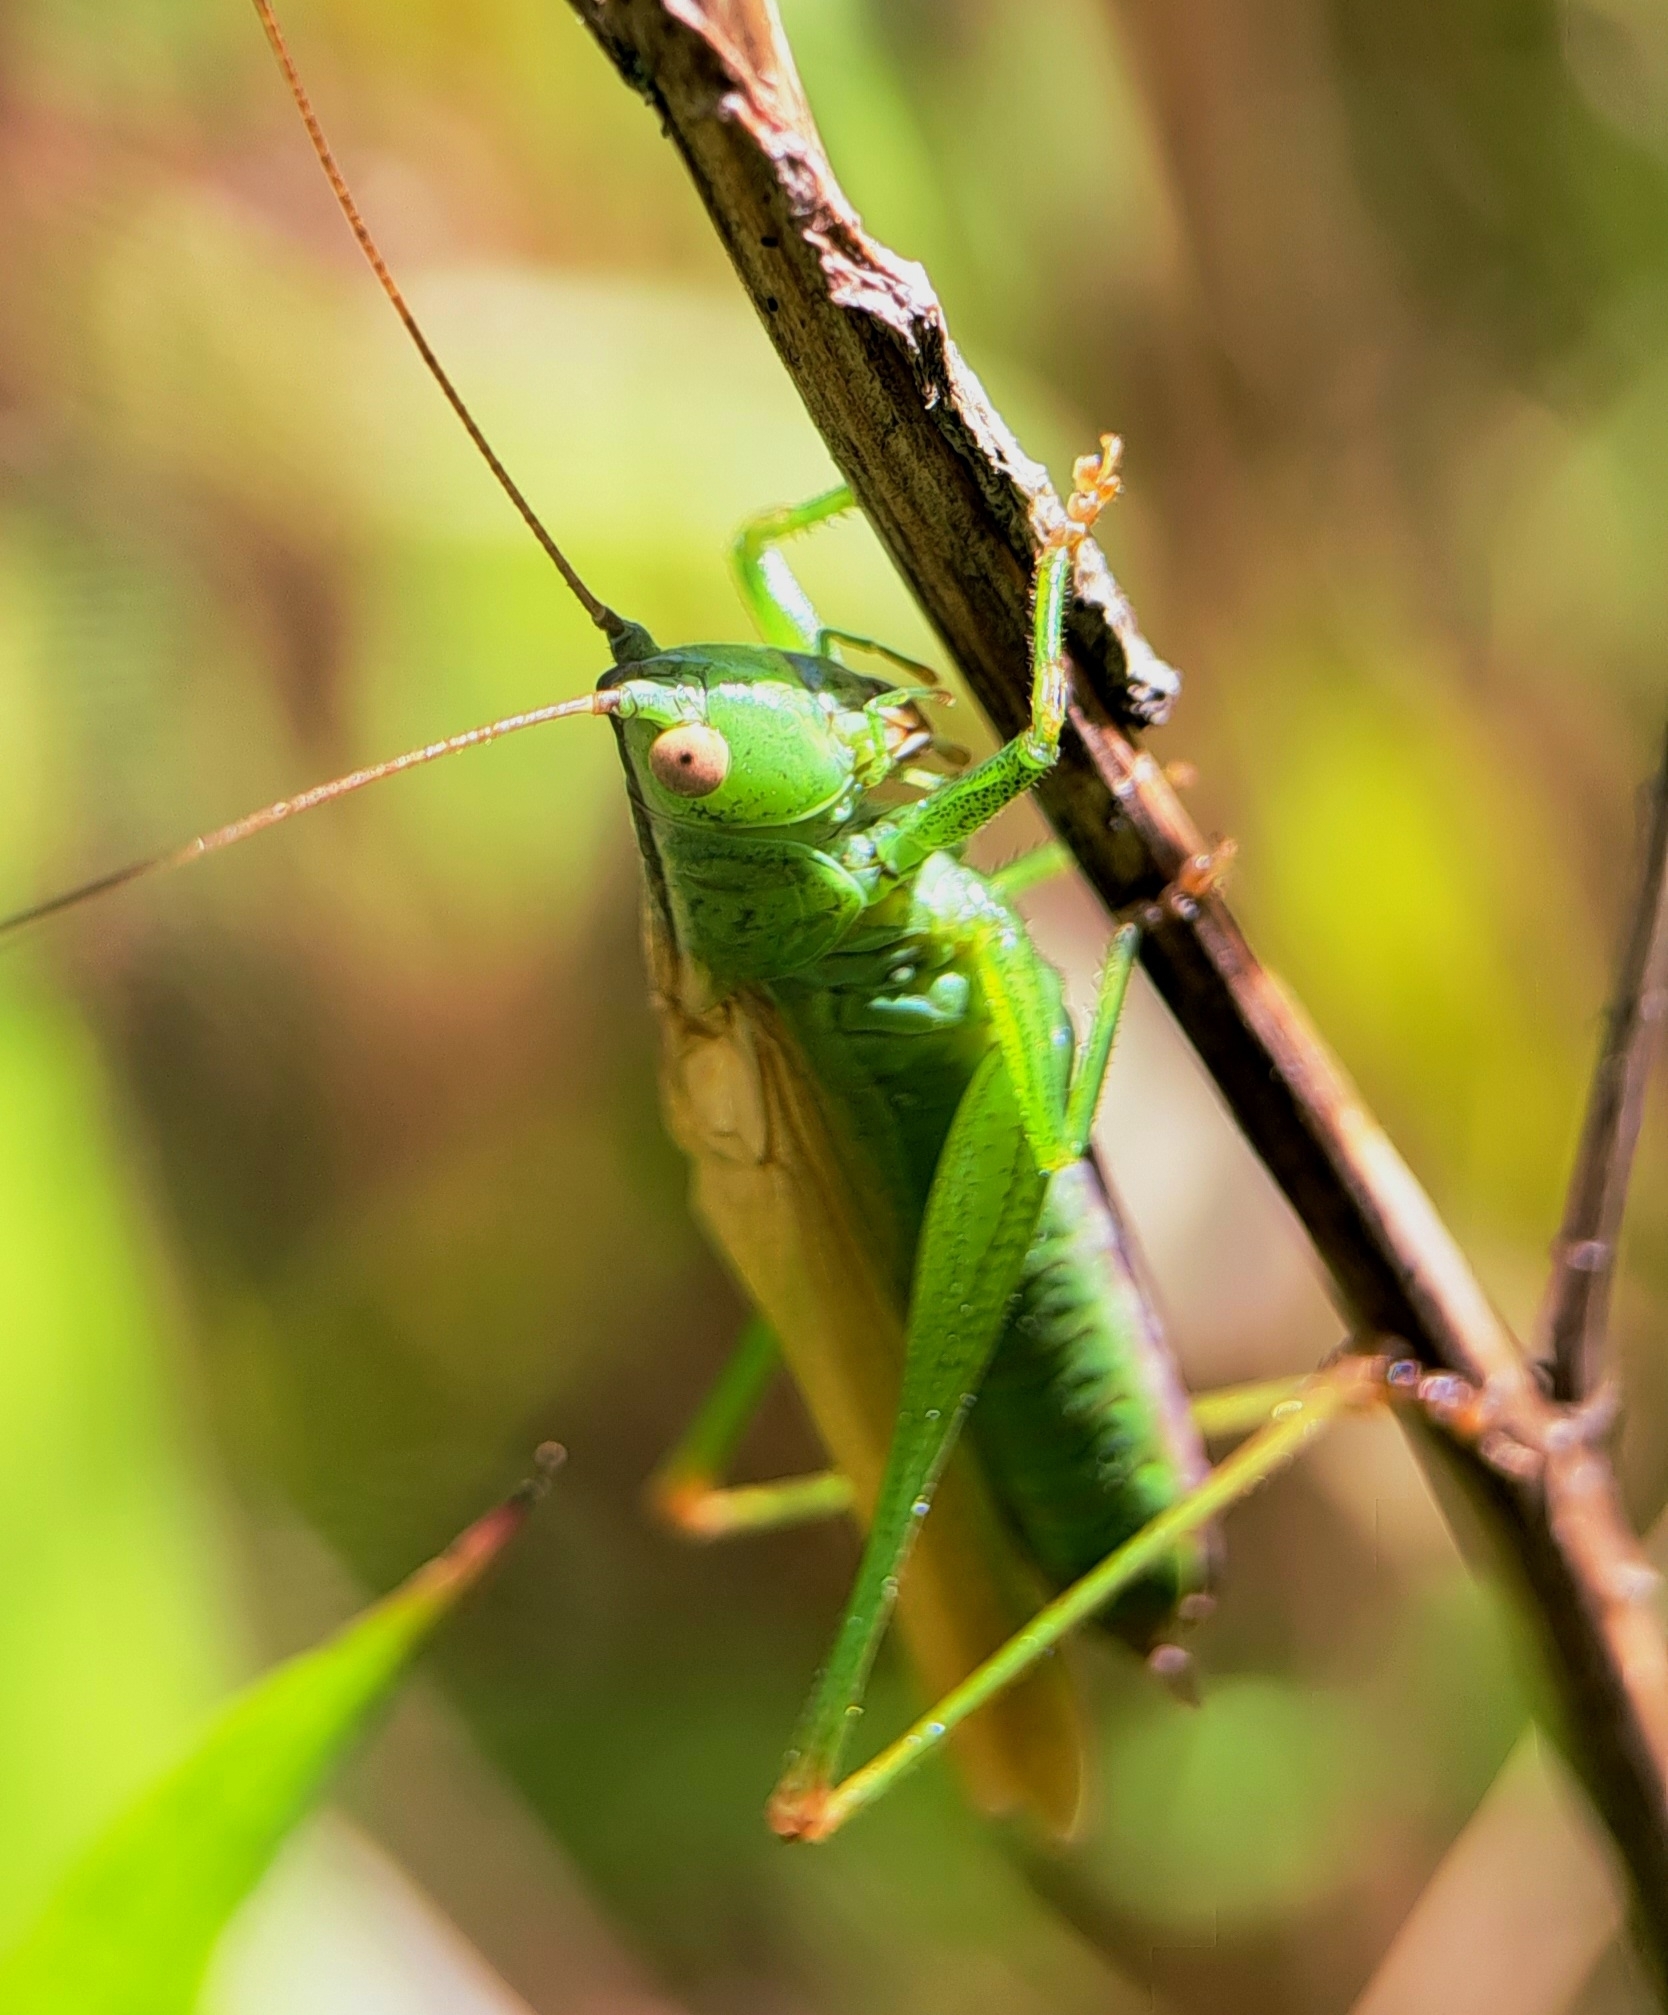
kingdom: Animalia
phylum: Arthropoda
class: Insecta
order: Orthoptera
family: Tettigoniidae
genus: Conocephalus
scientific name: Conocephalus fuscus
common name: Long-winged conehead
